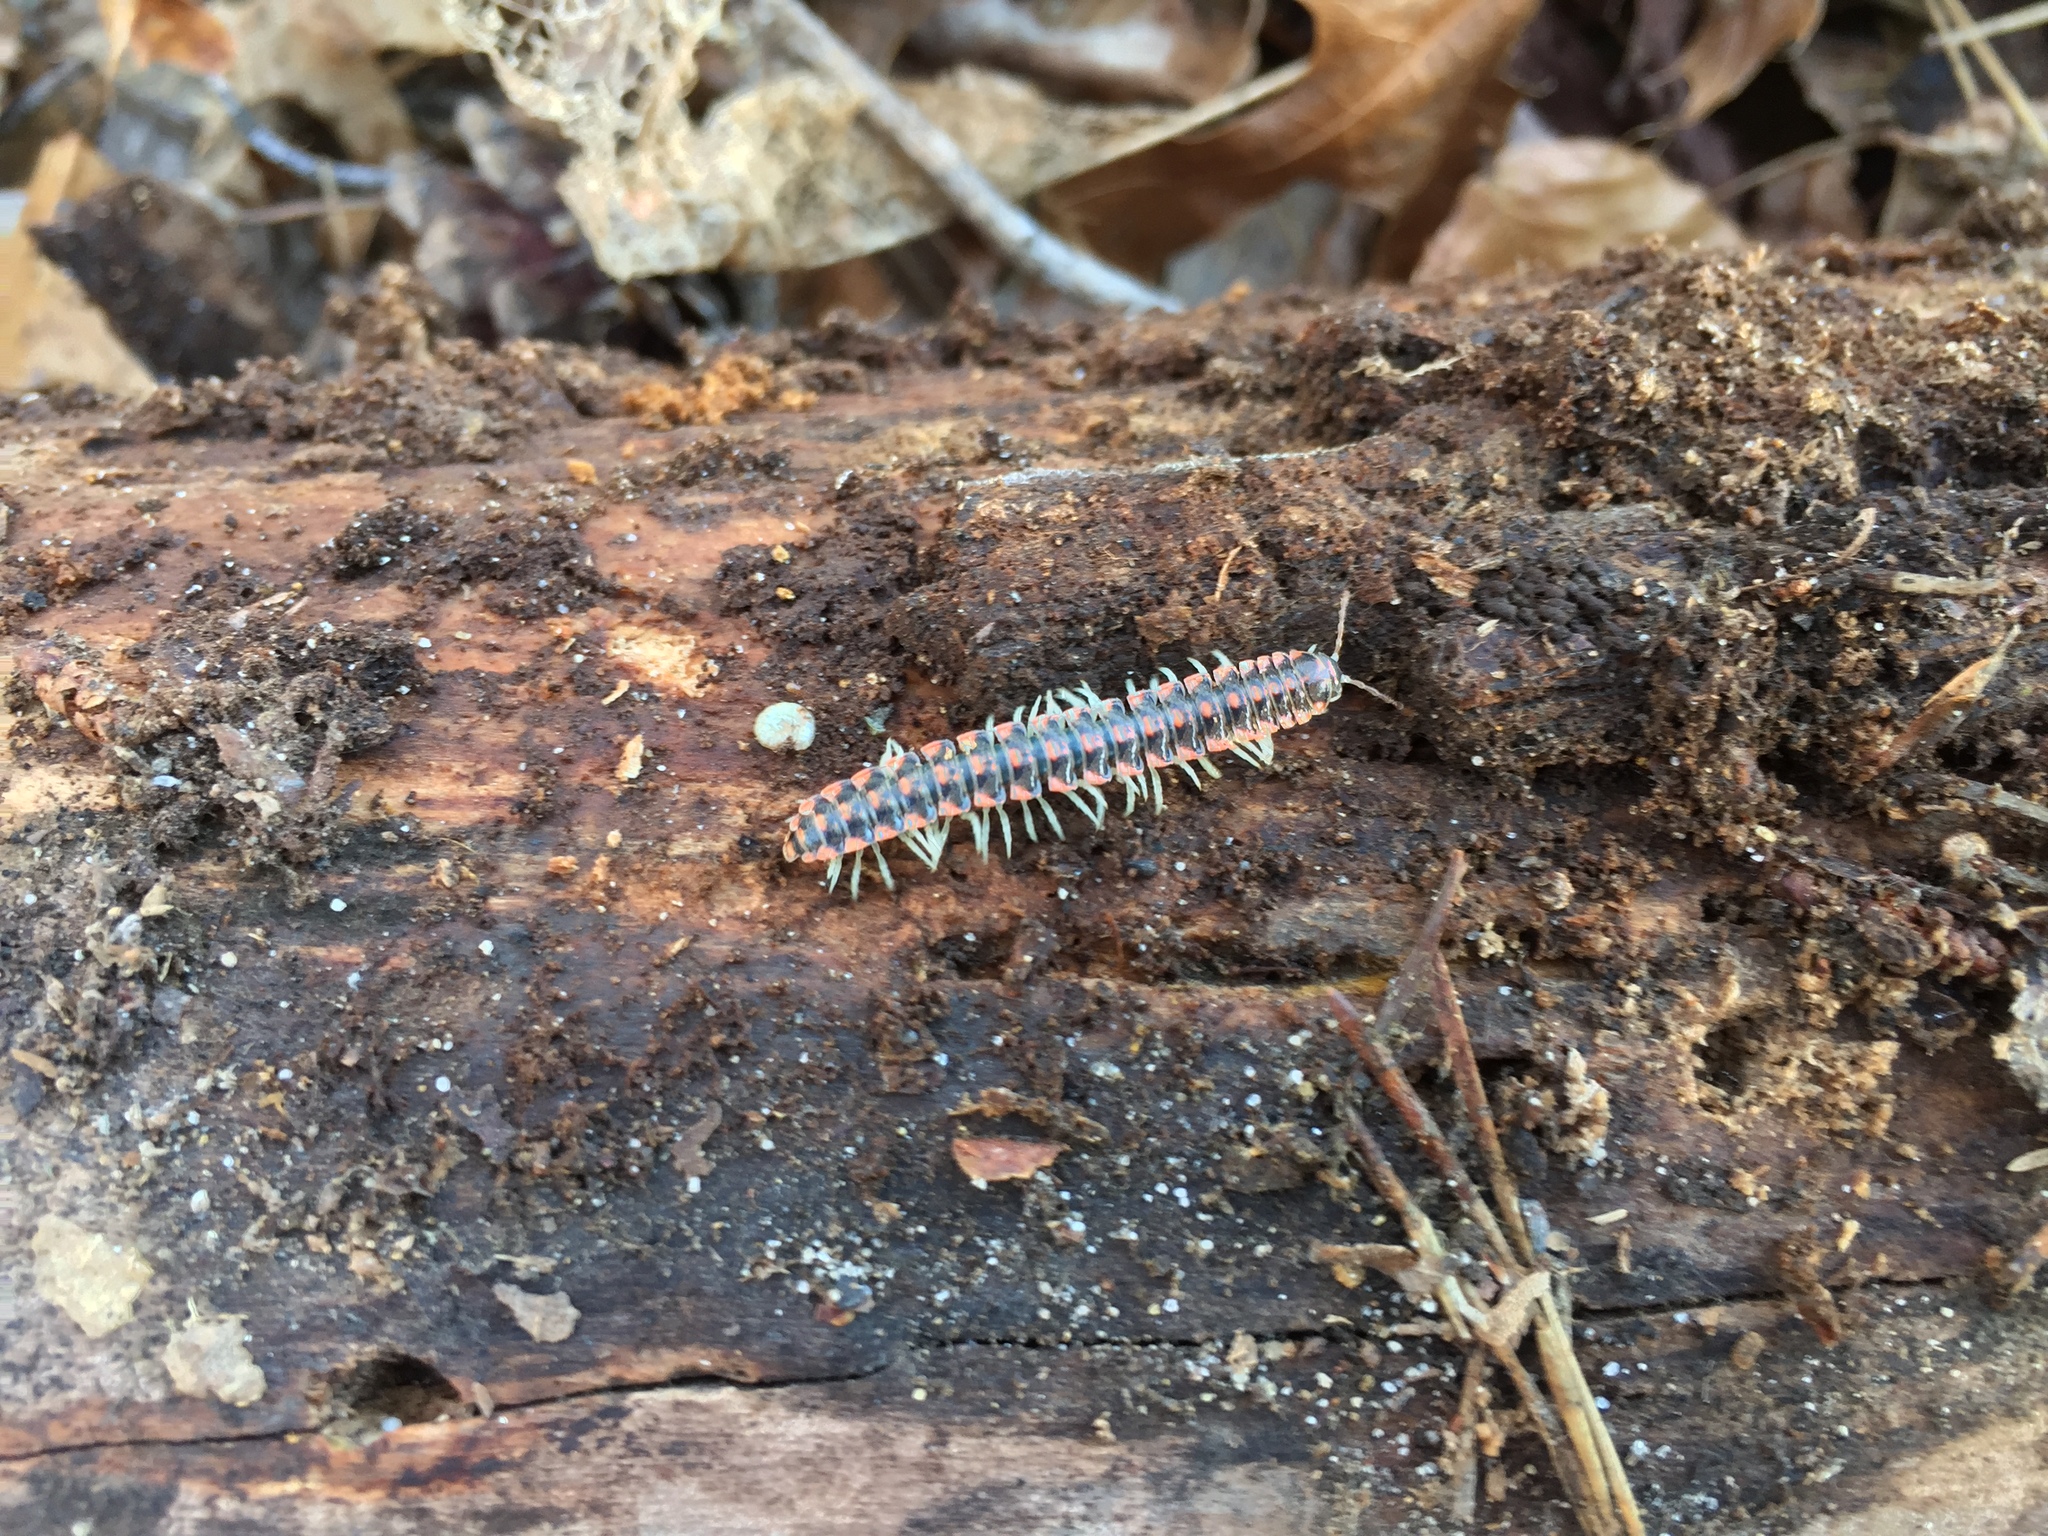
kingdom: Animalia
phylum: Arthropoda
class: Diplopoda
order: Polydesmida
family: Xystodesmidae
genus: Euryurus
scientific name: Euryurus maculatus
